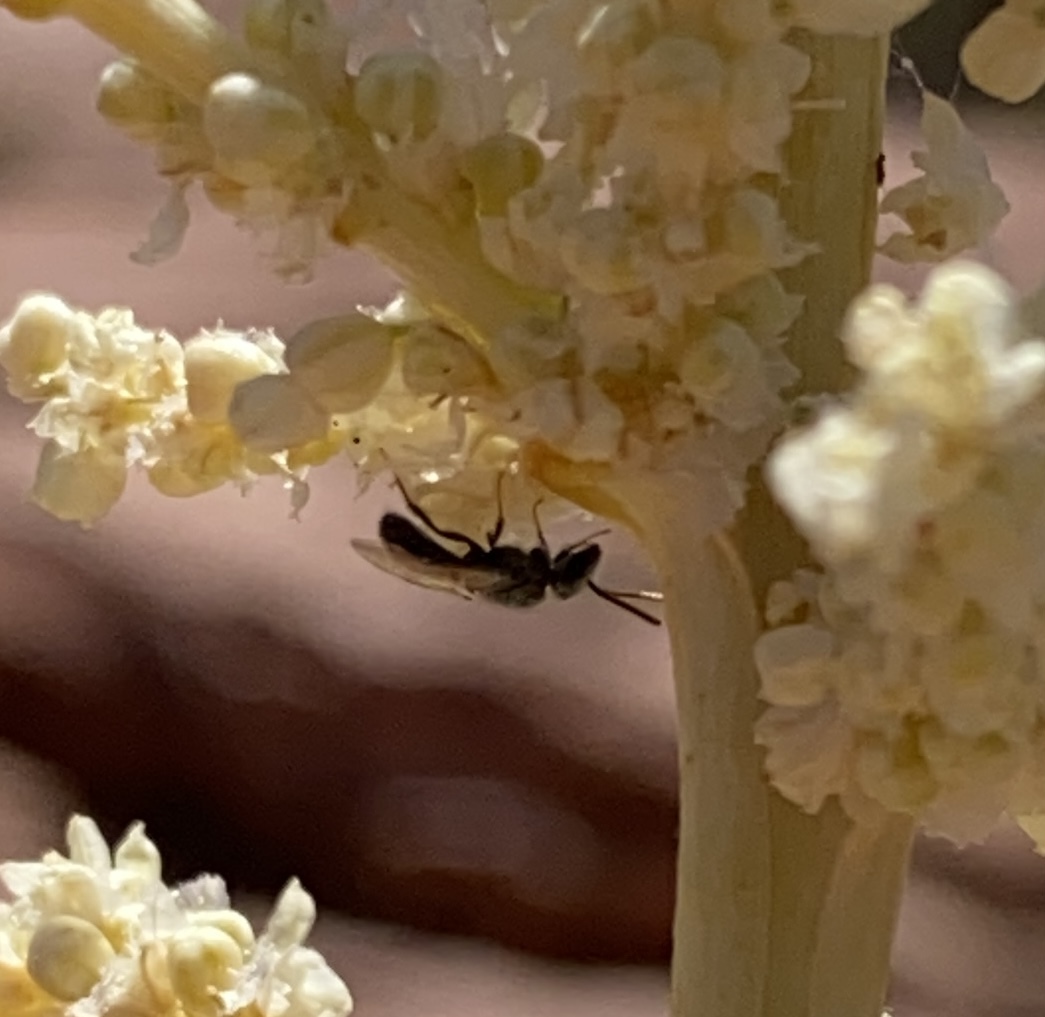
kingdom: Animalia
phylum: Arthropoda
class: Insecta
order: Hymenoptera
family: Halictidae
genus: Dialictus
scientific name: Dialictus
